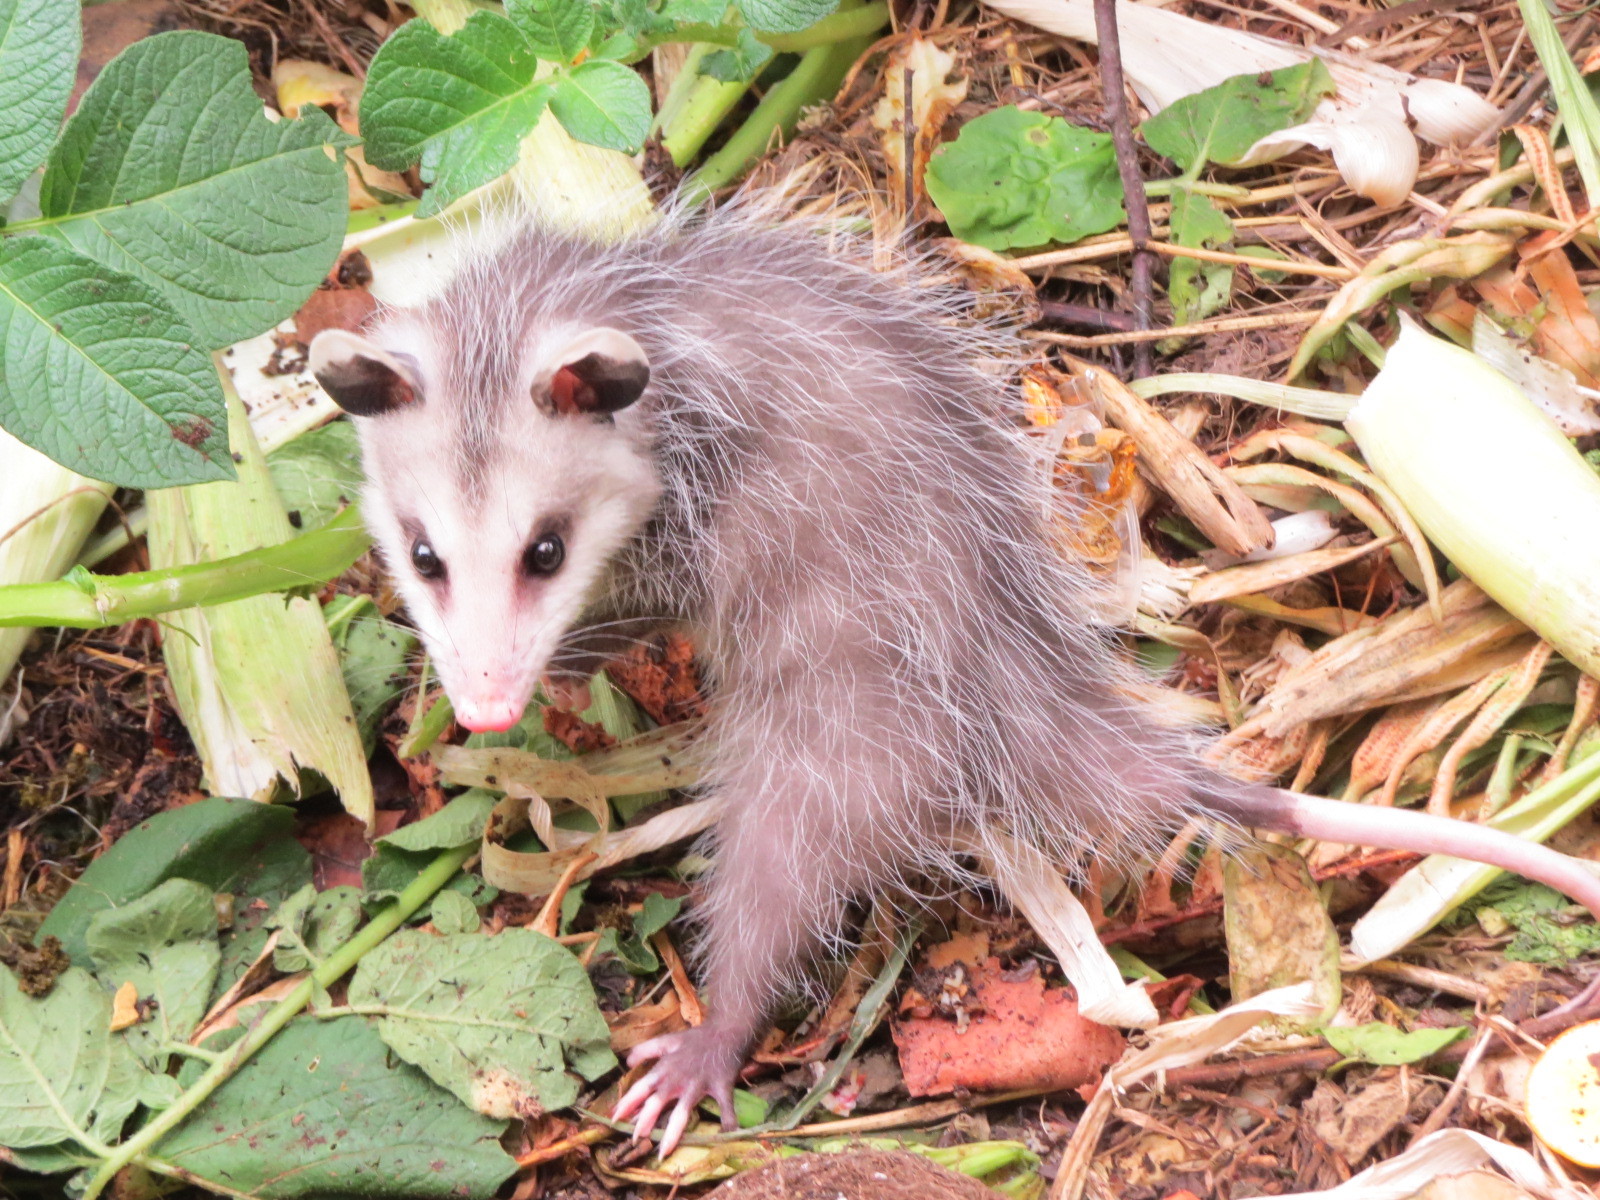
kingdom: Animalia
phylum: Chordata
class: Mammalia
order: Didelphimorphia
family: Didelphidae
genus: Didelphis
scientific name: Didelphis virginiana
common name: Virginia opossum
